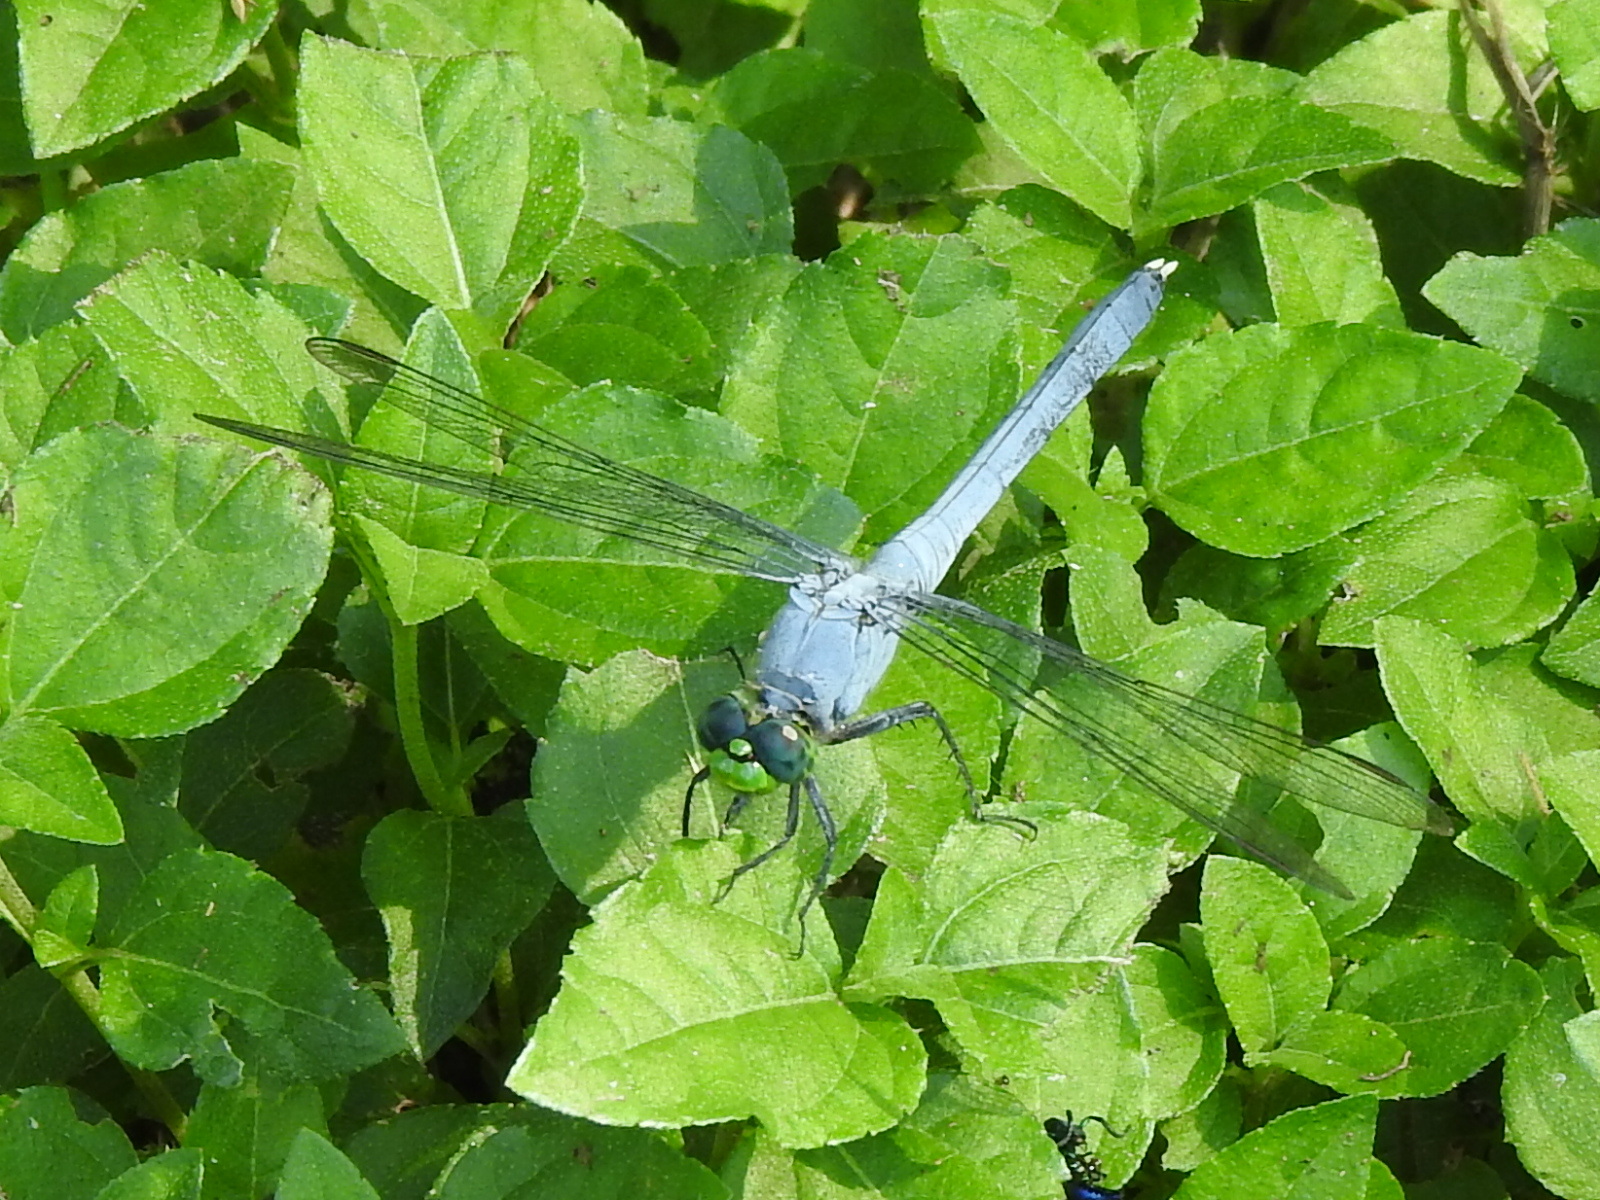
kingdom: Animalia
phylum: Arthropoda
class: Insecta
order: Odonata
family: Libellulidae
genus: Erythemis
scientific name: Erythemis simplicicollis
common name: Eastern pondhawk
